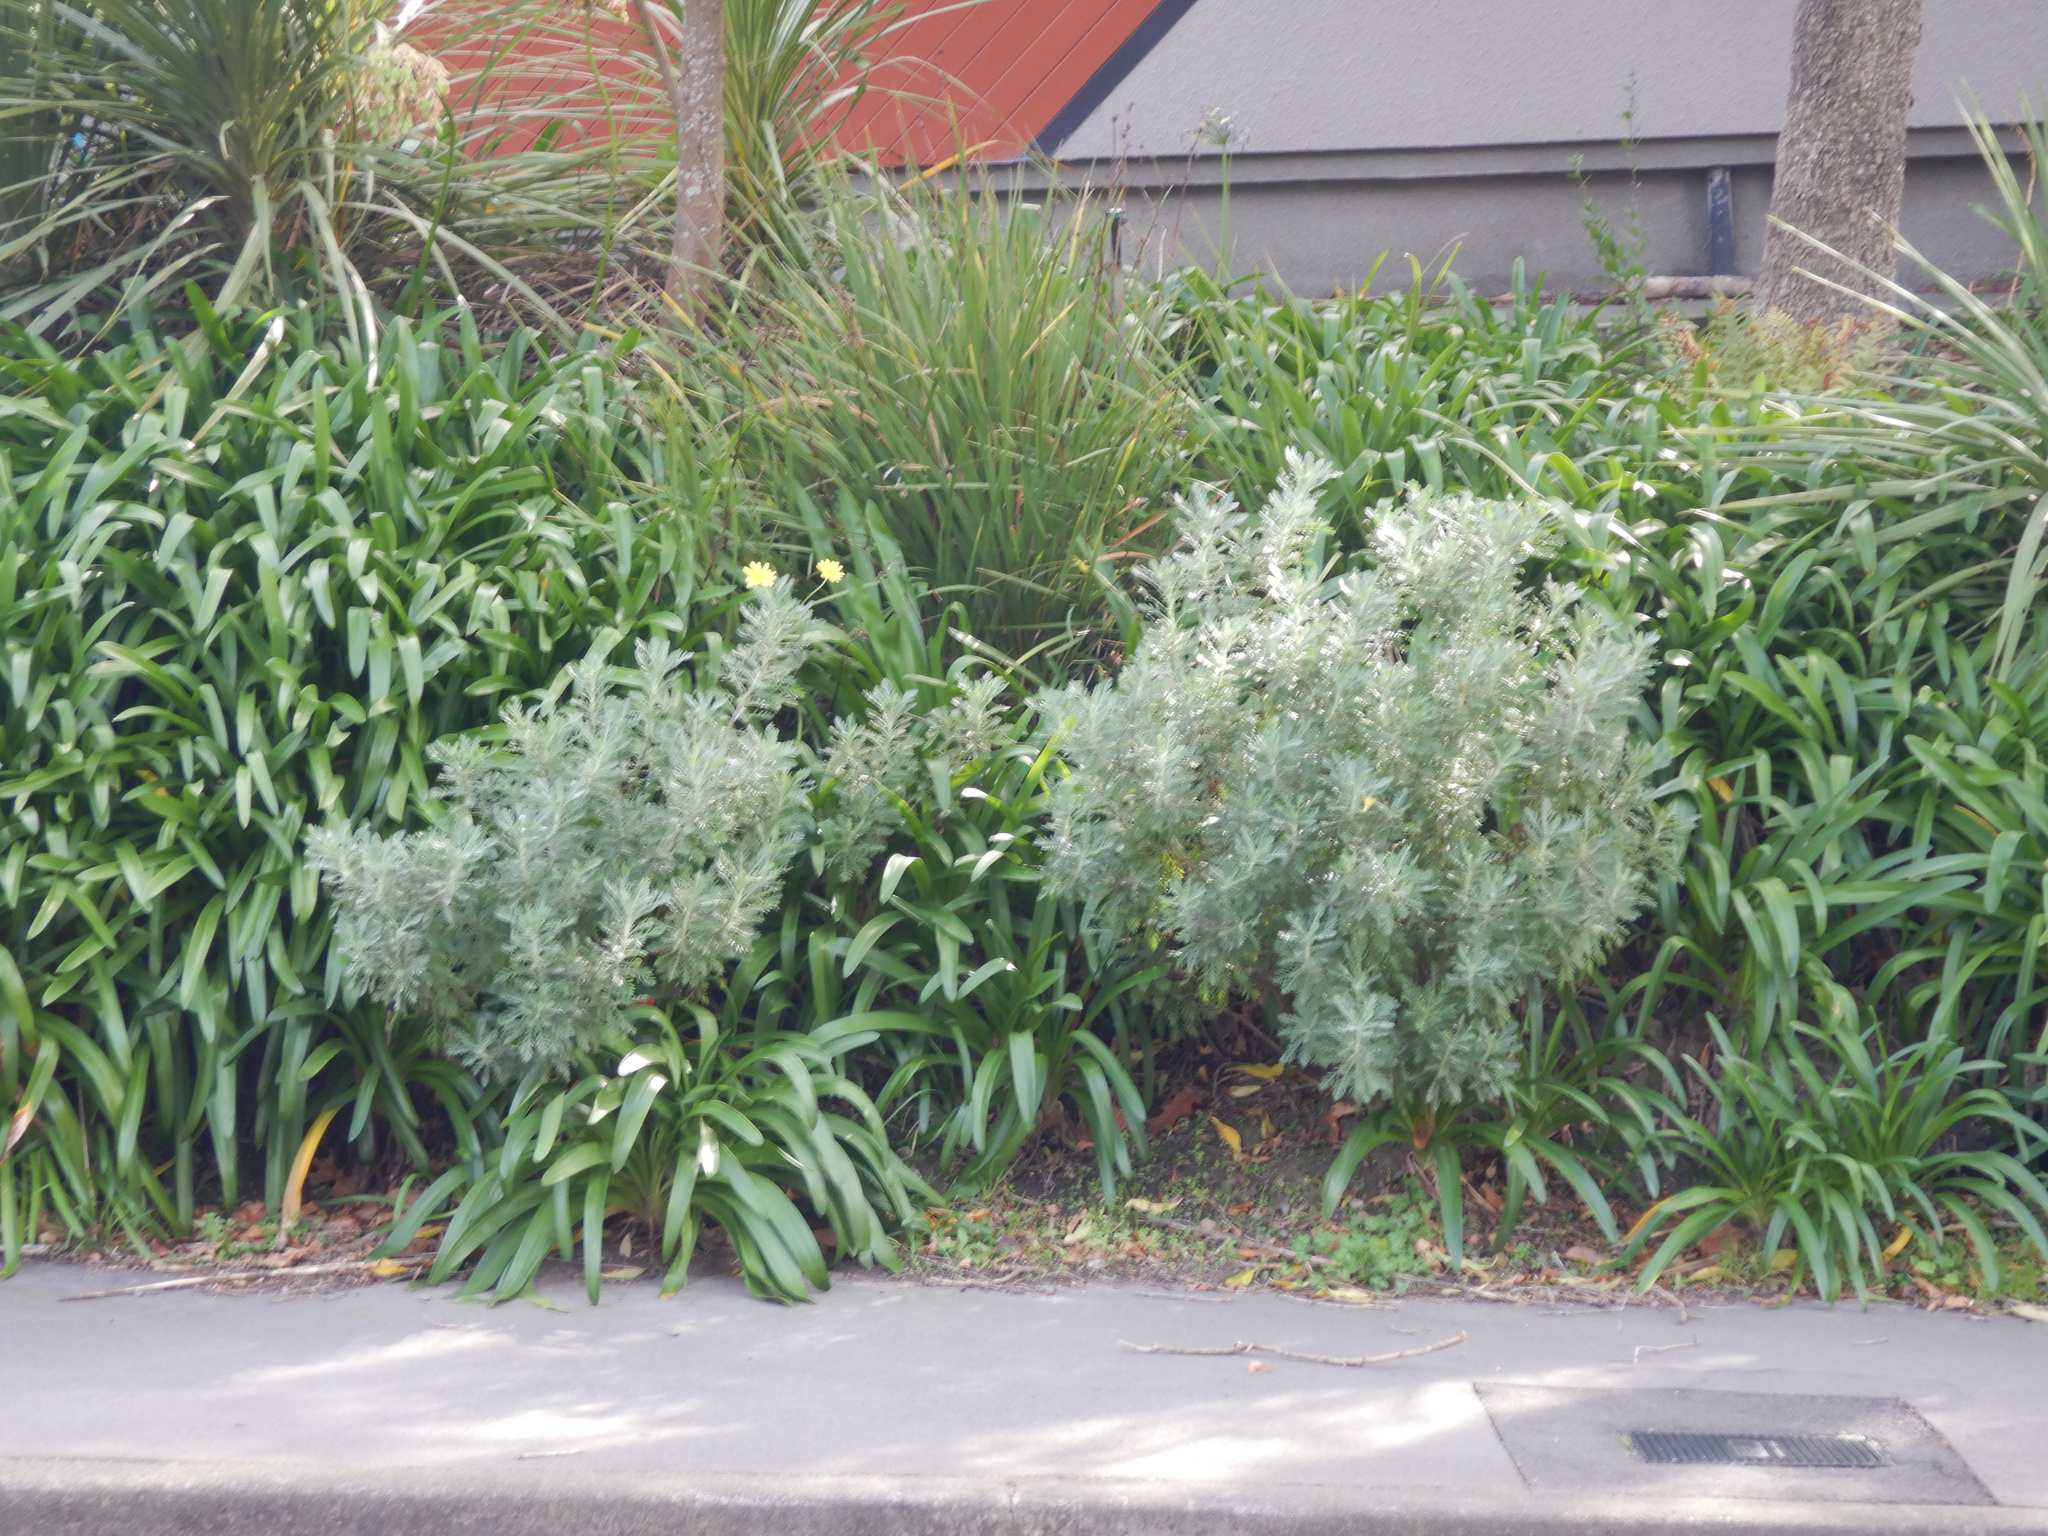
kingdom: Plantae
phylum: Tracheophyta
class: Magnoliopsida
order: Asterales
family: Asteraceae
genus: Euryops
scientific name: Euryops pectinatus
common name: Gray-leaf euryops
